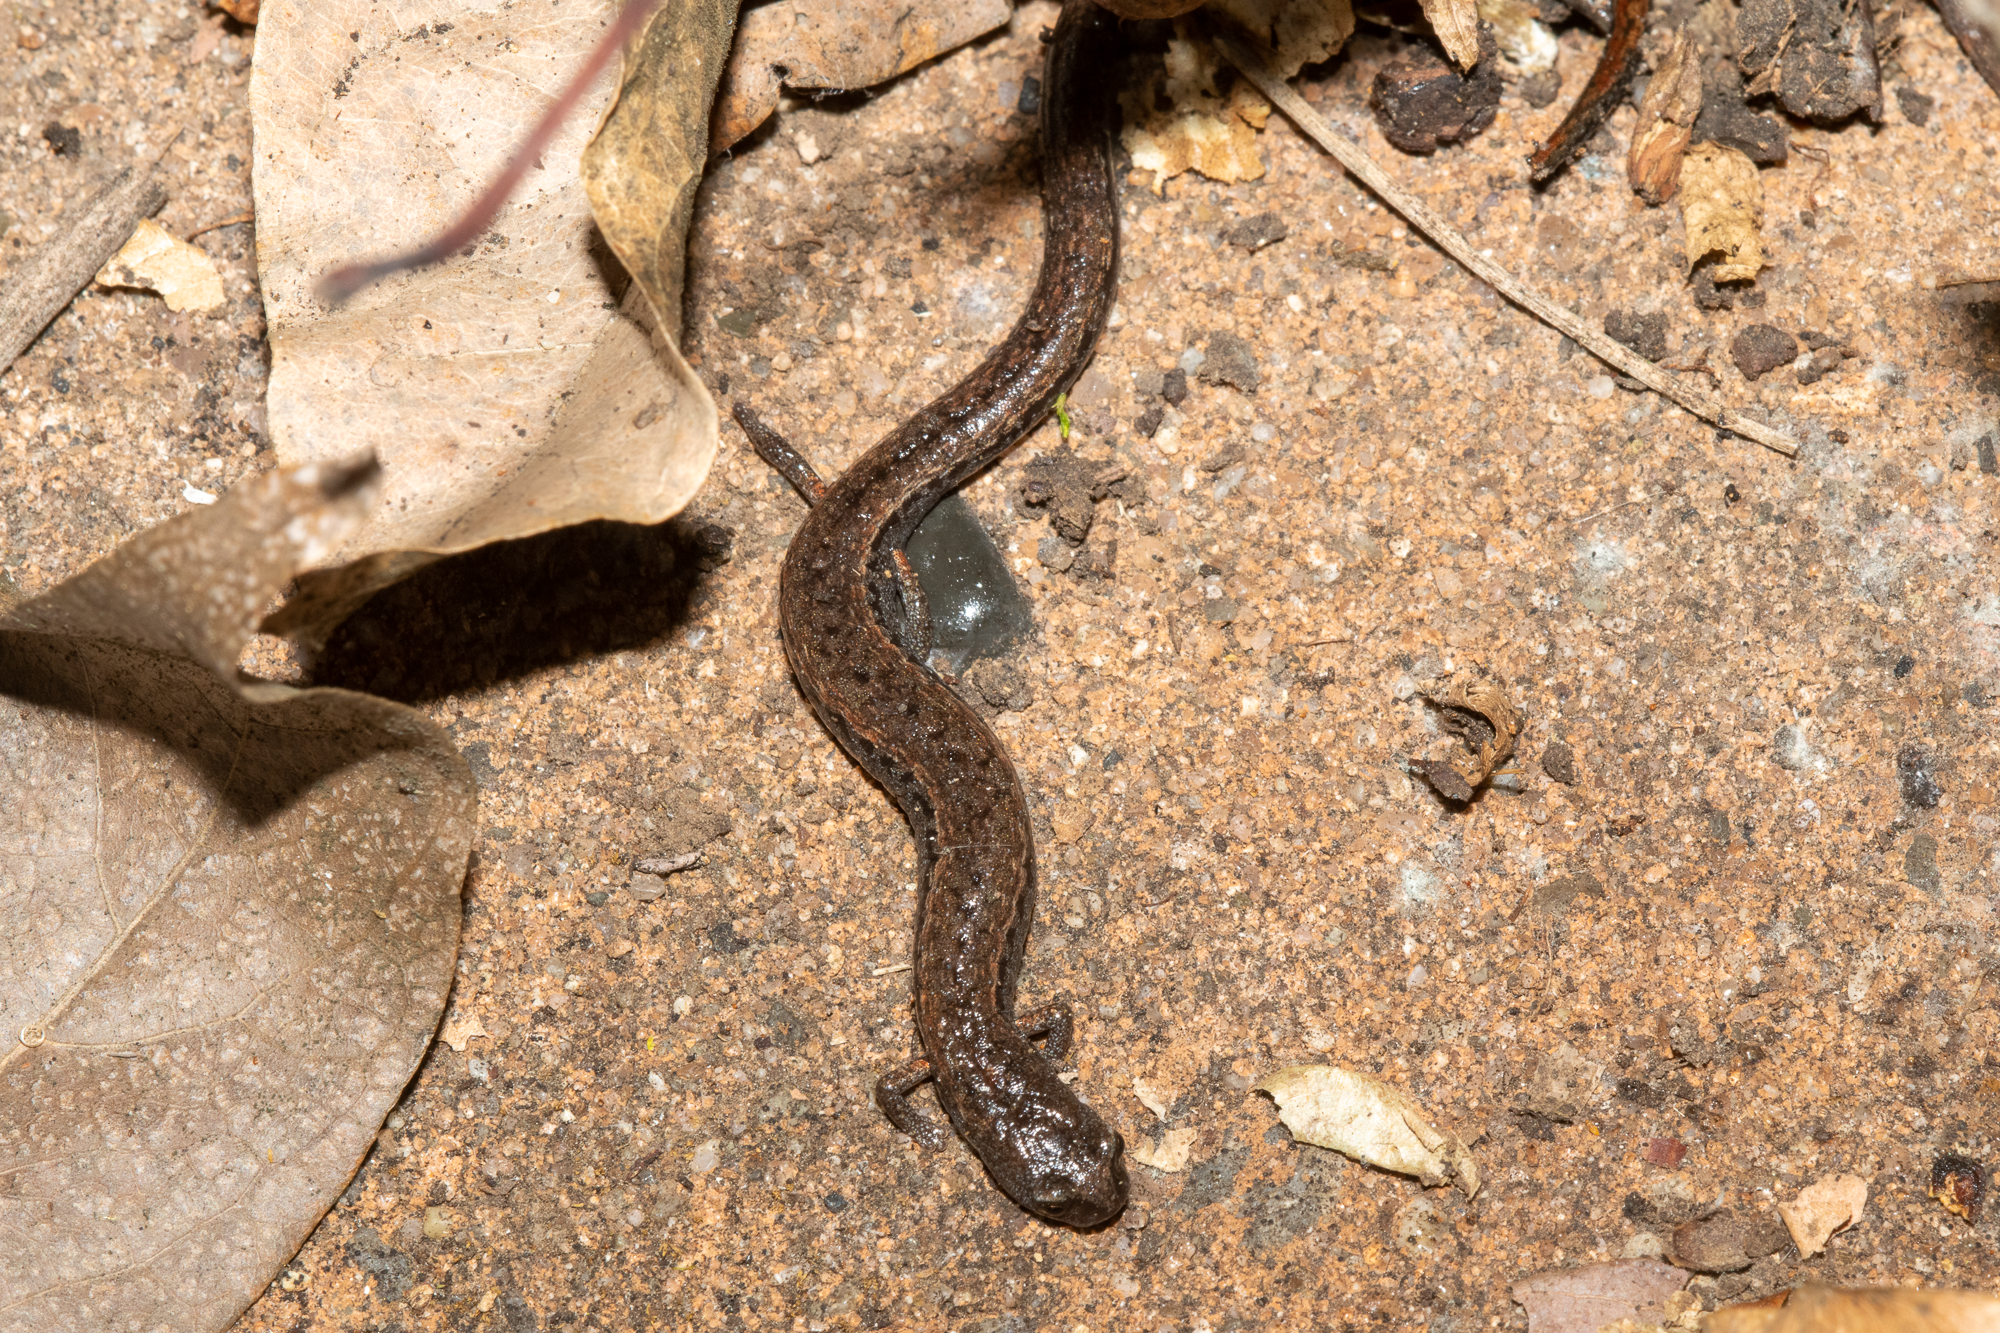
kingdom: Animalia
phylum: Chordata
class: Amphibia
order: Caudata
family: Plethodontidae
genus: Batrachoseps
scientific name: Batrachoseps attenuatus
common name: California slender salamander
